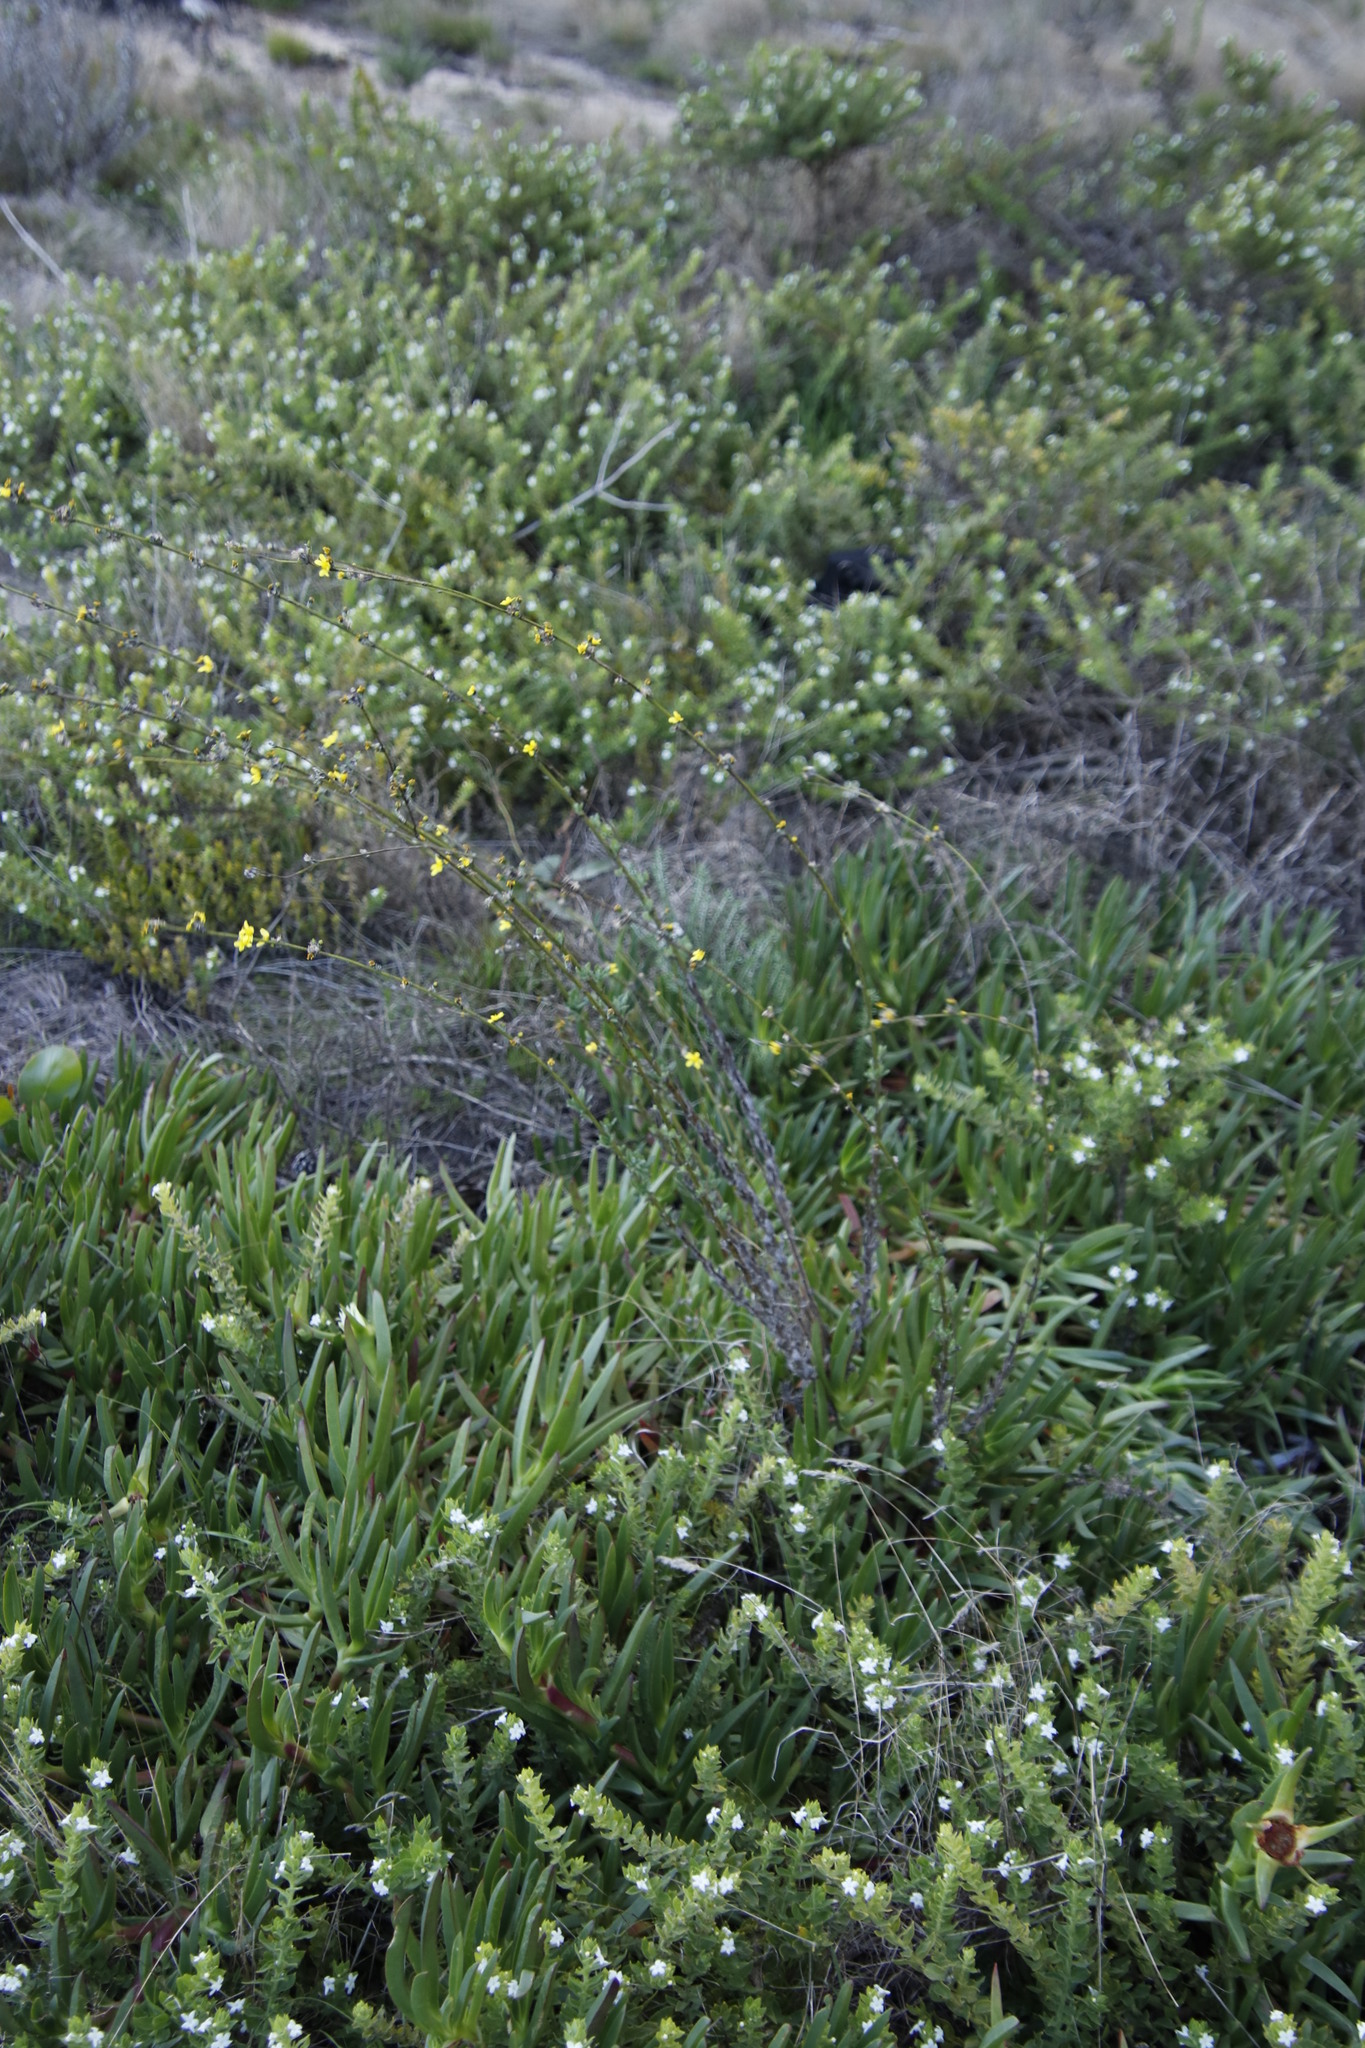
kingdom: Plantae
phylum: Tracheophyta
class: Magnoliopsida
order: Asterales
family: Asteraceae
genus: Senecio
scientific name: Senecio pubigerus
